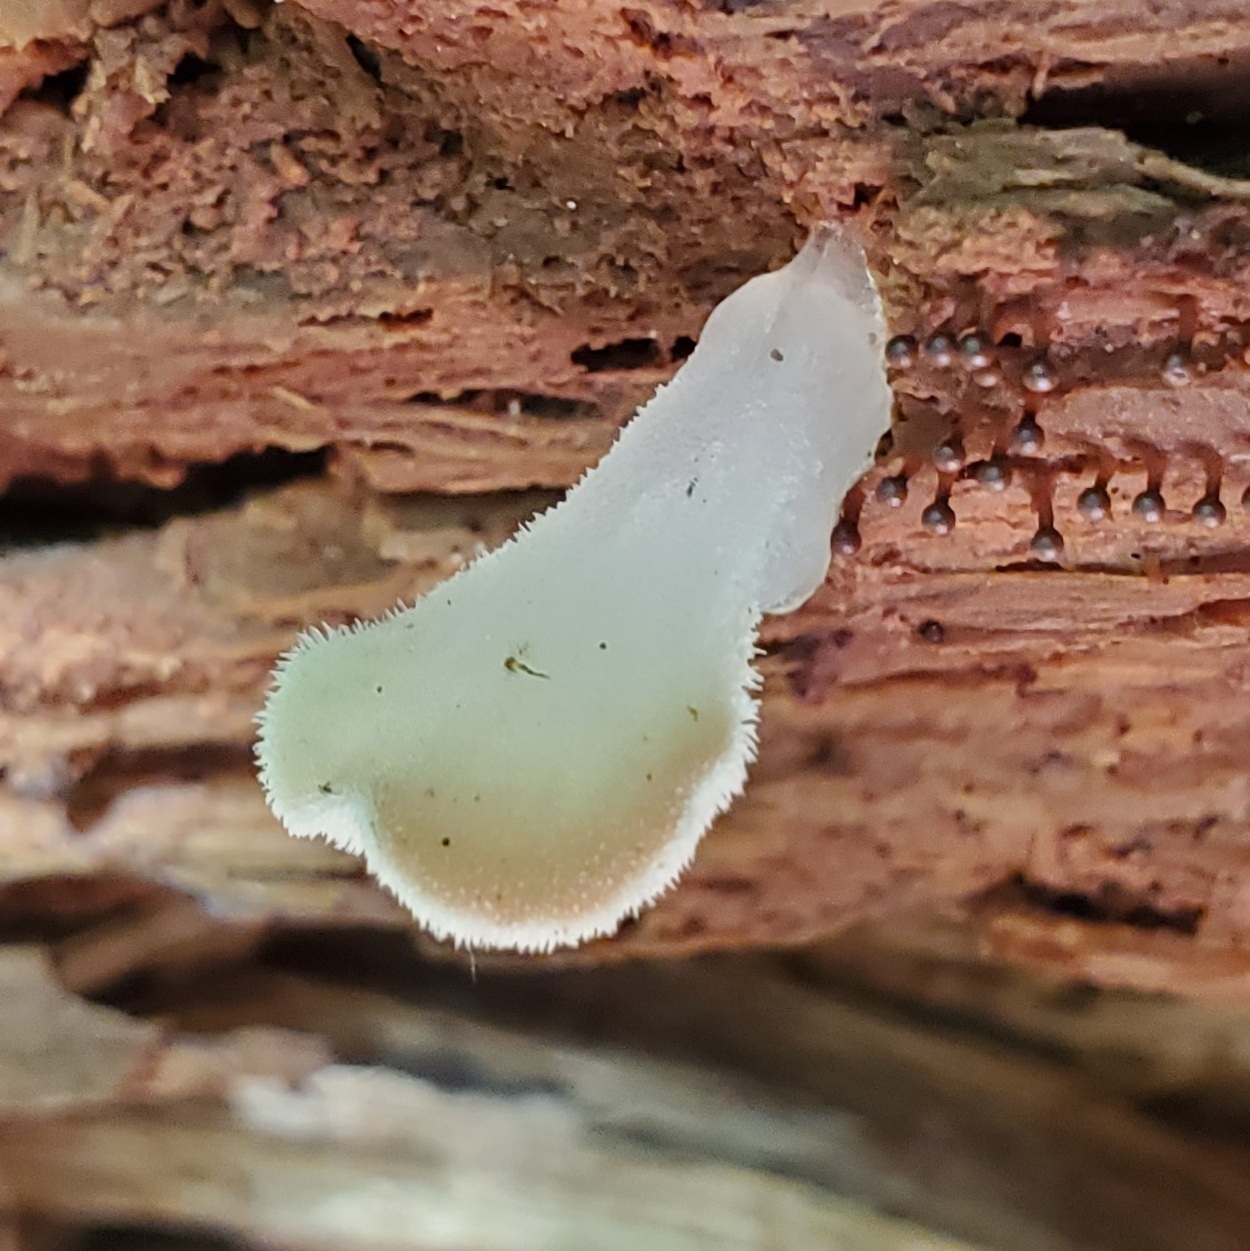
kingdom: Fungi
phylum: Basidiomycota
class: Agaricomycetes
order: Auriculariales
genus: Pseudohydnum
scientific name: Pseudohydnum gelatinosum
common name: Jelly tongue
